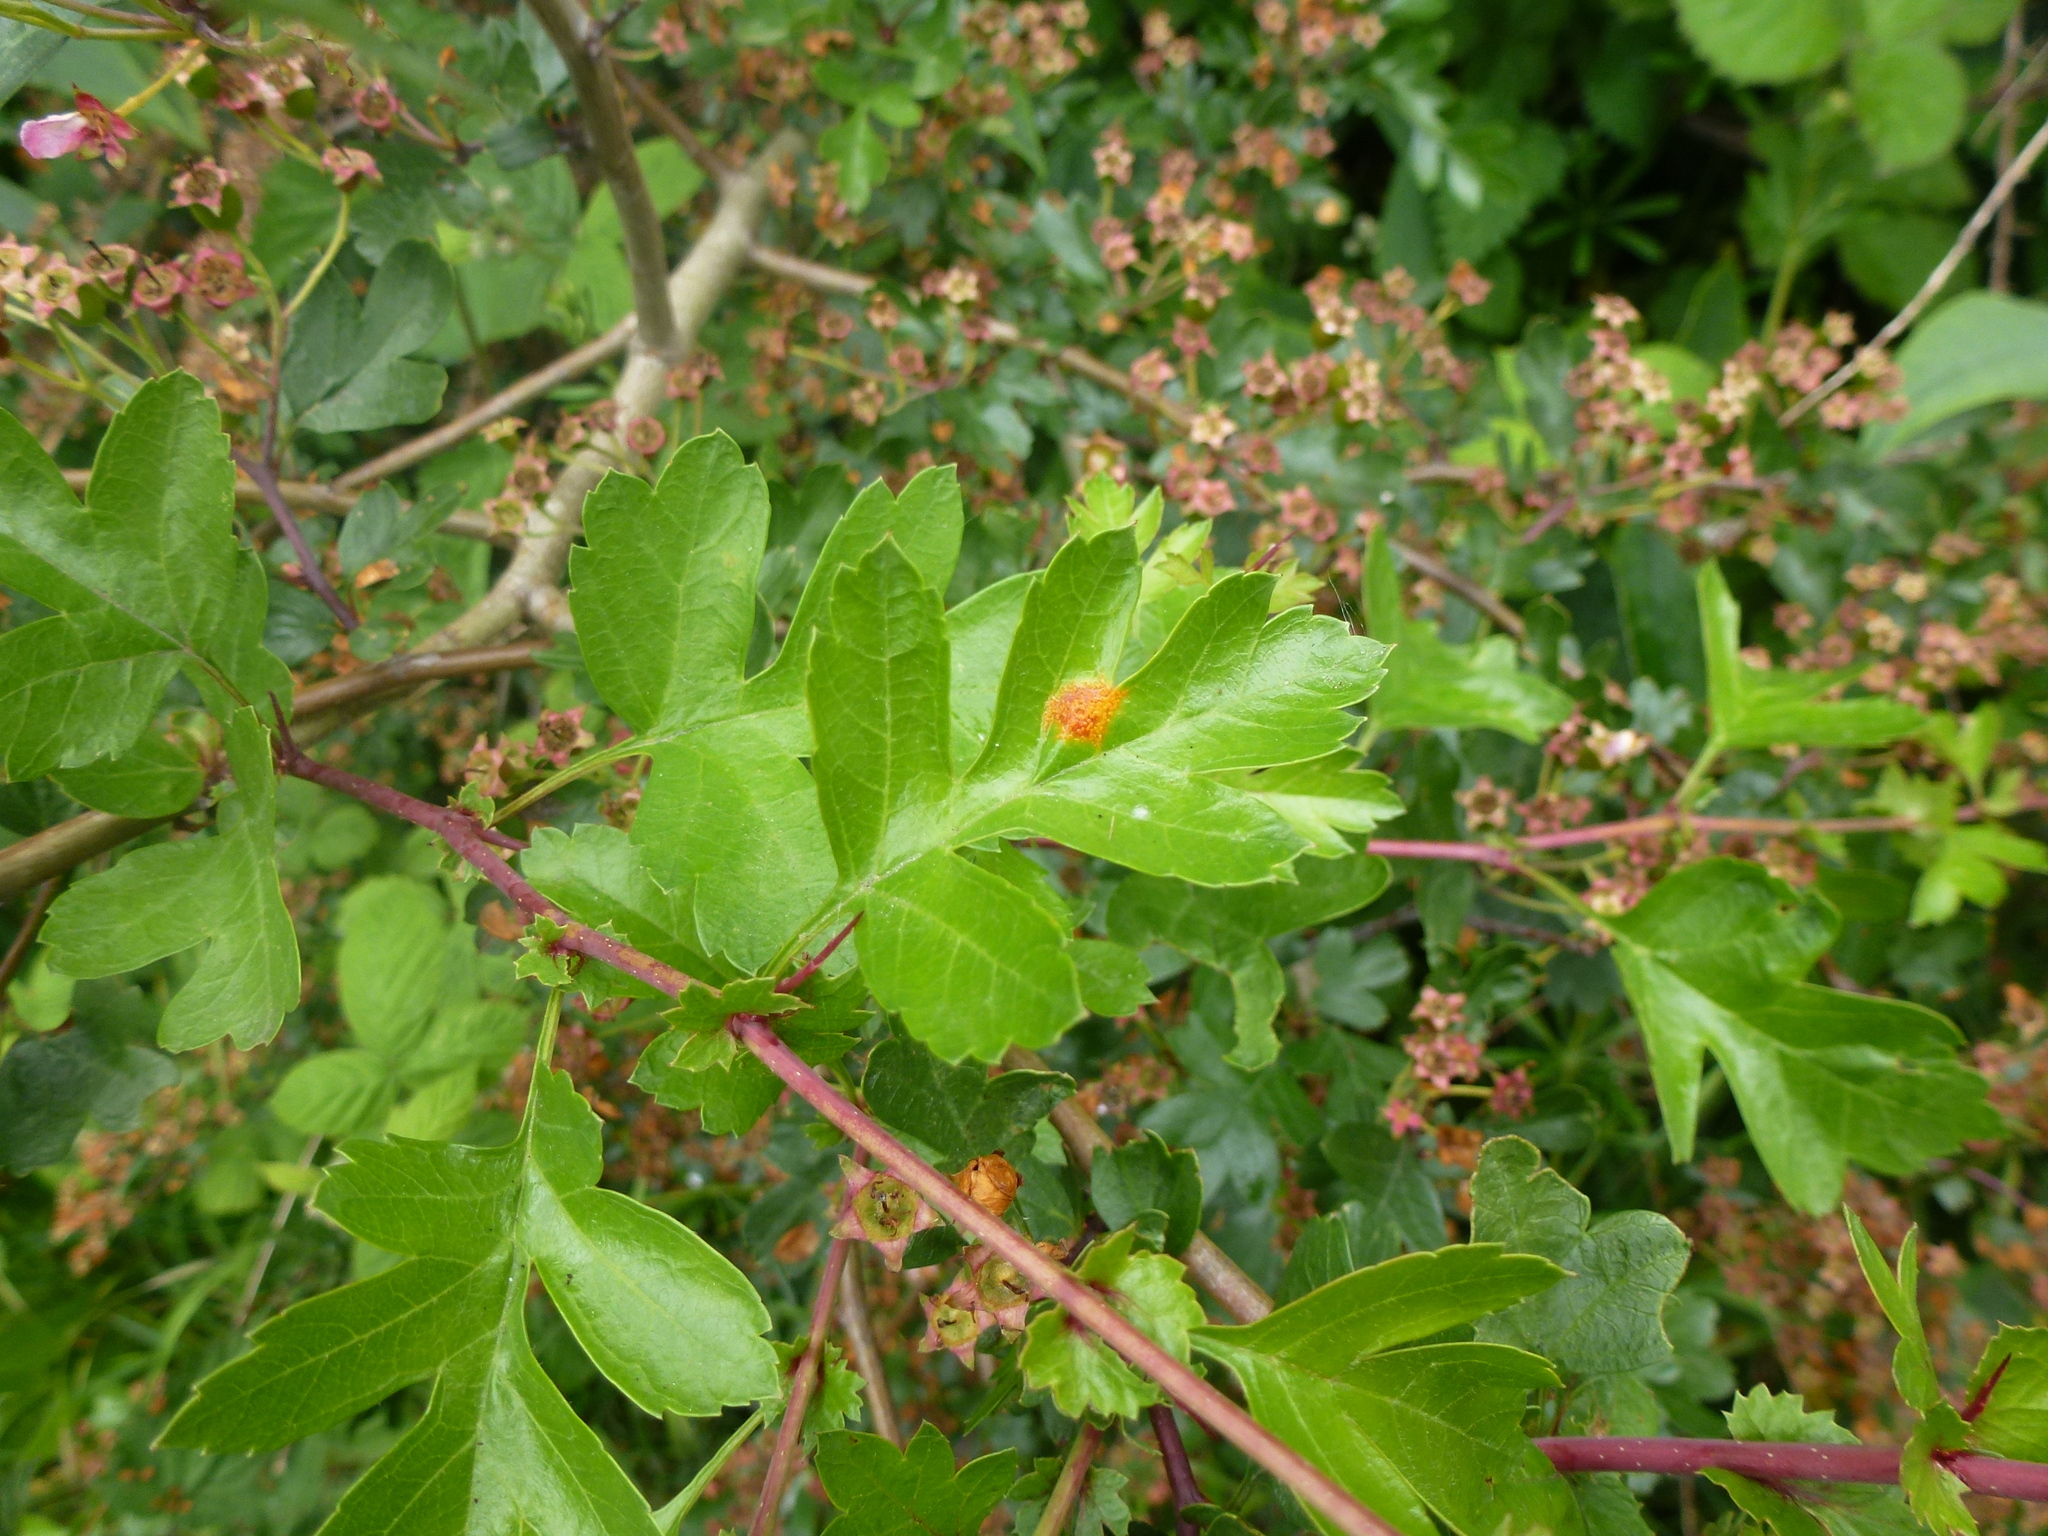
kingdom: Fungi
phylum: Basidiomycota
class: Pucciniomycetes
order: Pucciniales
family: Gymnosporangiaceae
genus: Gymnosporangium
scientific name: Gymnosporangium clavariiforme
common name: Tongues of fire
